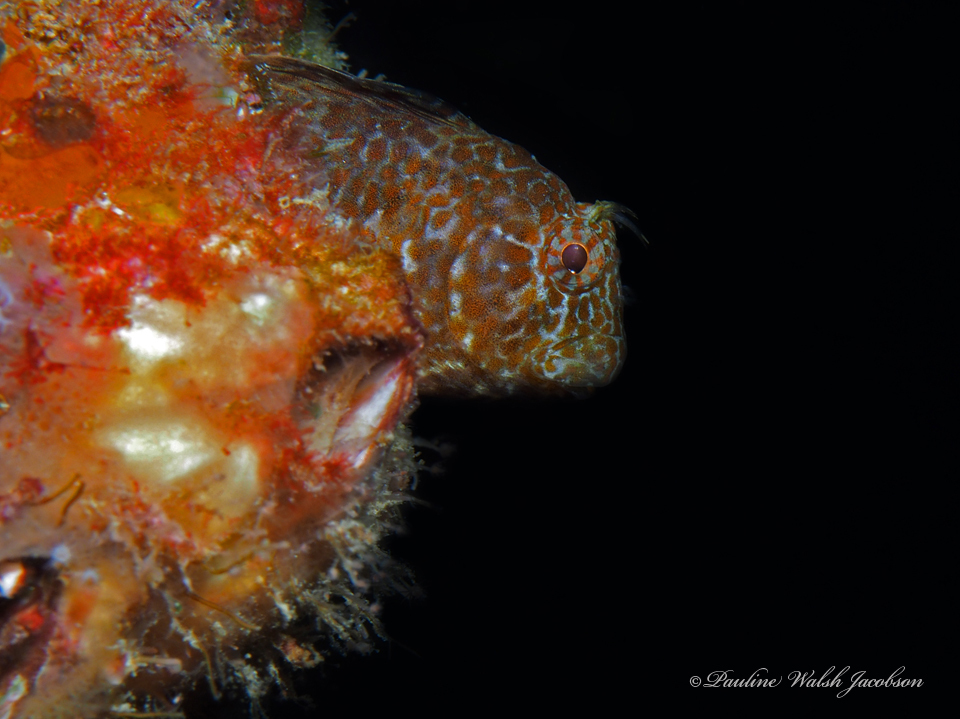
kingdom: Animalia
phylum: Chordata
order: Perciformes
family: Blenniidae
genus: Hypleurochilus
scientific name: Hypleurochilus pseudoaequipinnis
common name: Oyster blenny
